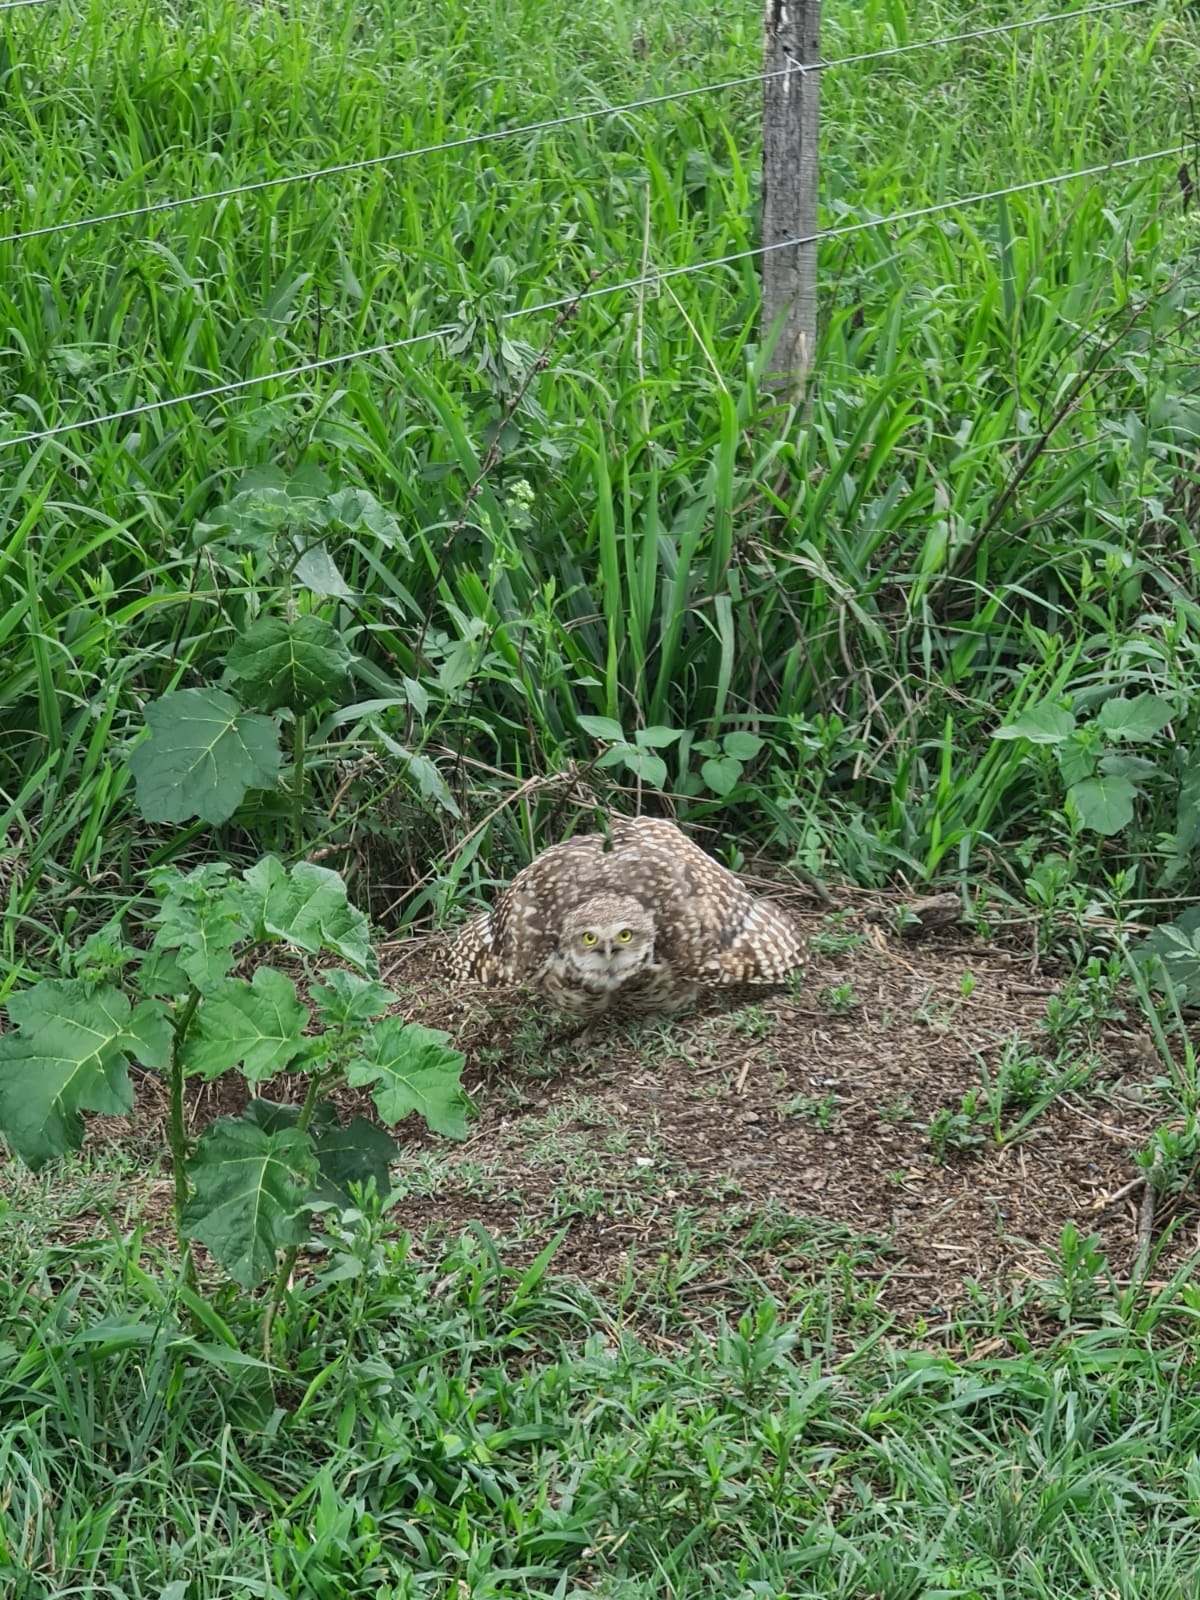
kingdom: Animalia
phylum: Chordata
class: Aves
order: Strigiformes
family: Strigidae
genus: Athene
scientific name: Athene cunicularia
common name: Burrowing owl
